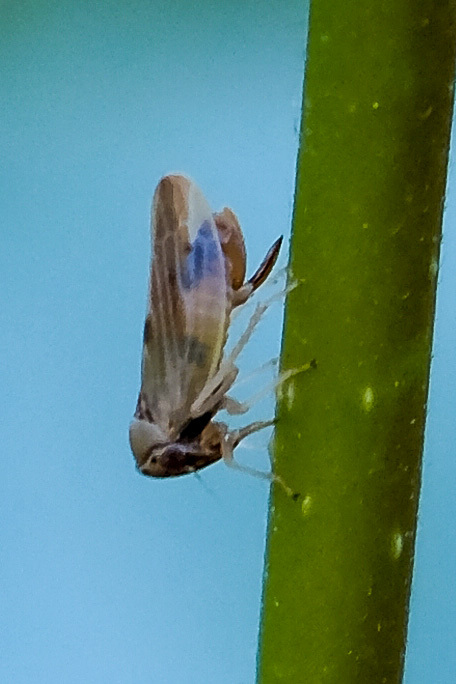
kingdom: Animalia
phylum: Arthropoda
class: Insecta
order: Hemiptera
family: Cicadellidae
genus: Agalliopsis
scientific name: Agalliopsis ancistra
